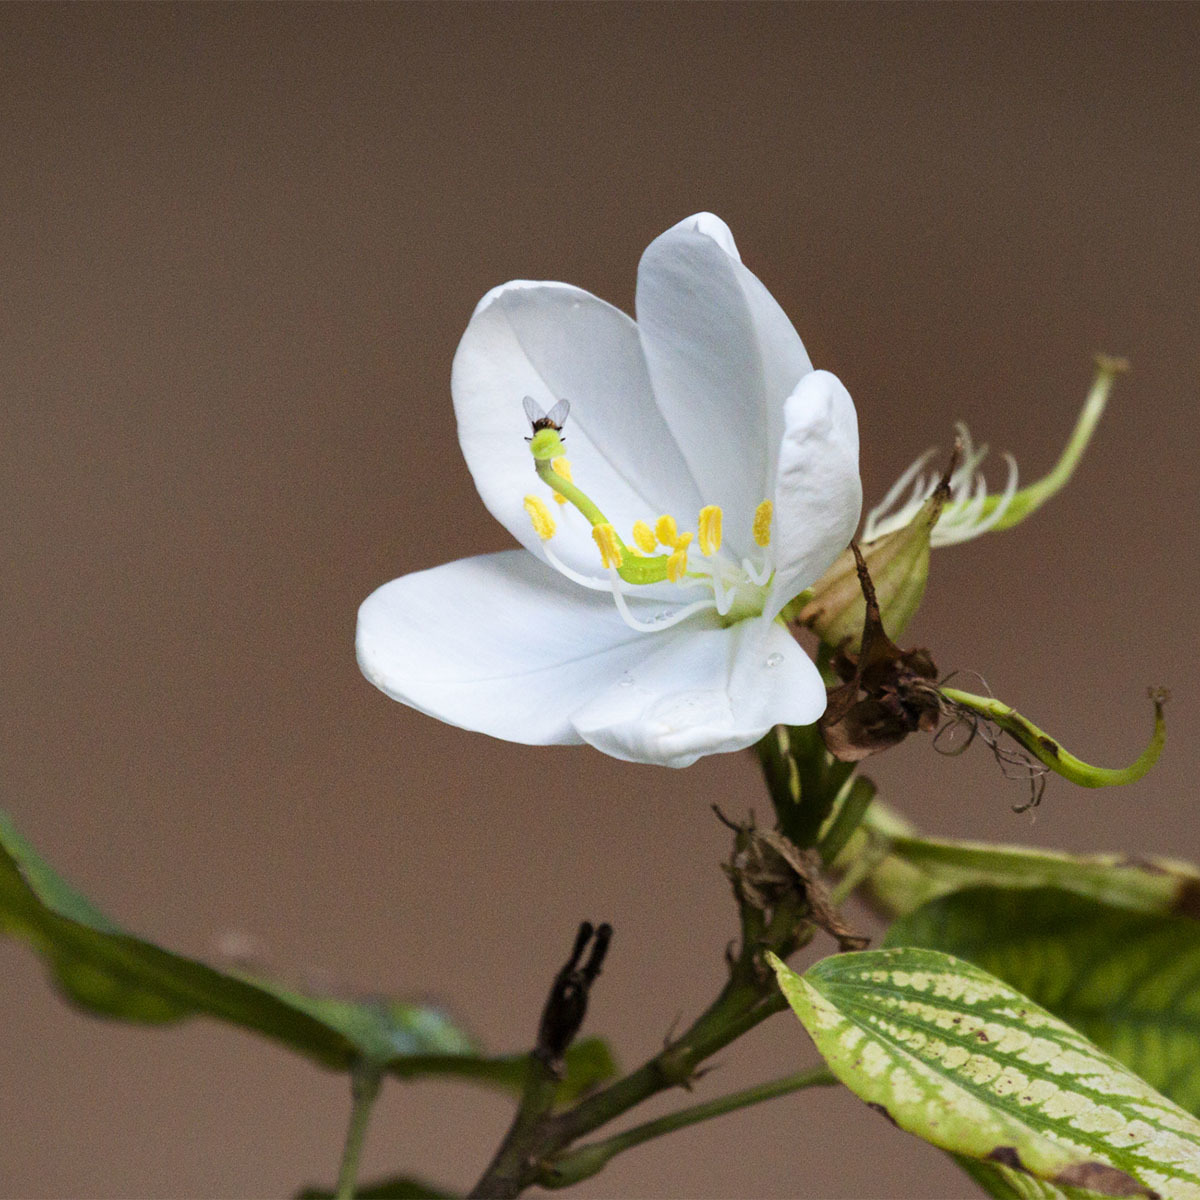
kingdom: Plantae
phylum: Tracheophyta
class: Magnoliopsida
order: Fabales
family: Fabaceae
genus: Bauhinia
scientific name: Bauhinia acuminata
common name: Dwarf white bauhinia
